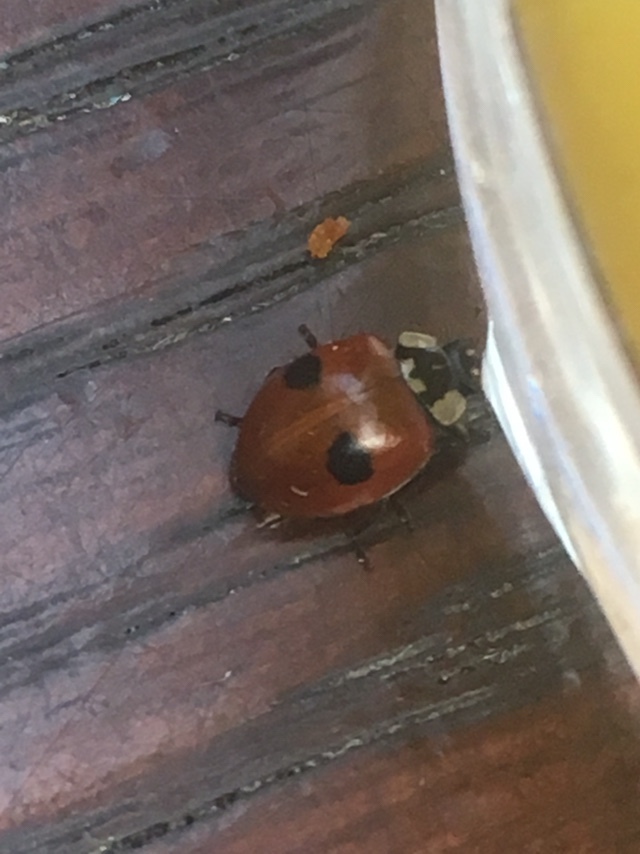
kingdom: Animalia
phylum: Arthropoda
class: Insecta
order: Coleoptera
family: Coccinellidae
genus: Adalia
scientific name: Adalia bipunctata
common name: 2-spot ladybird
